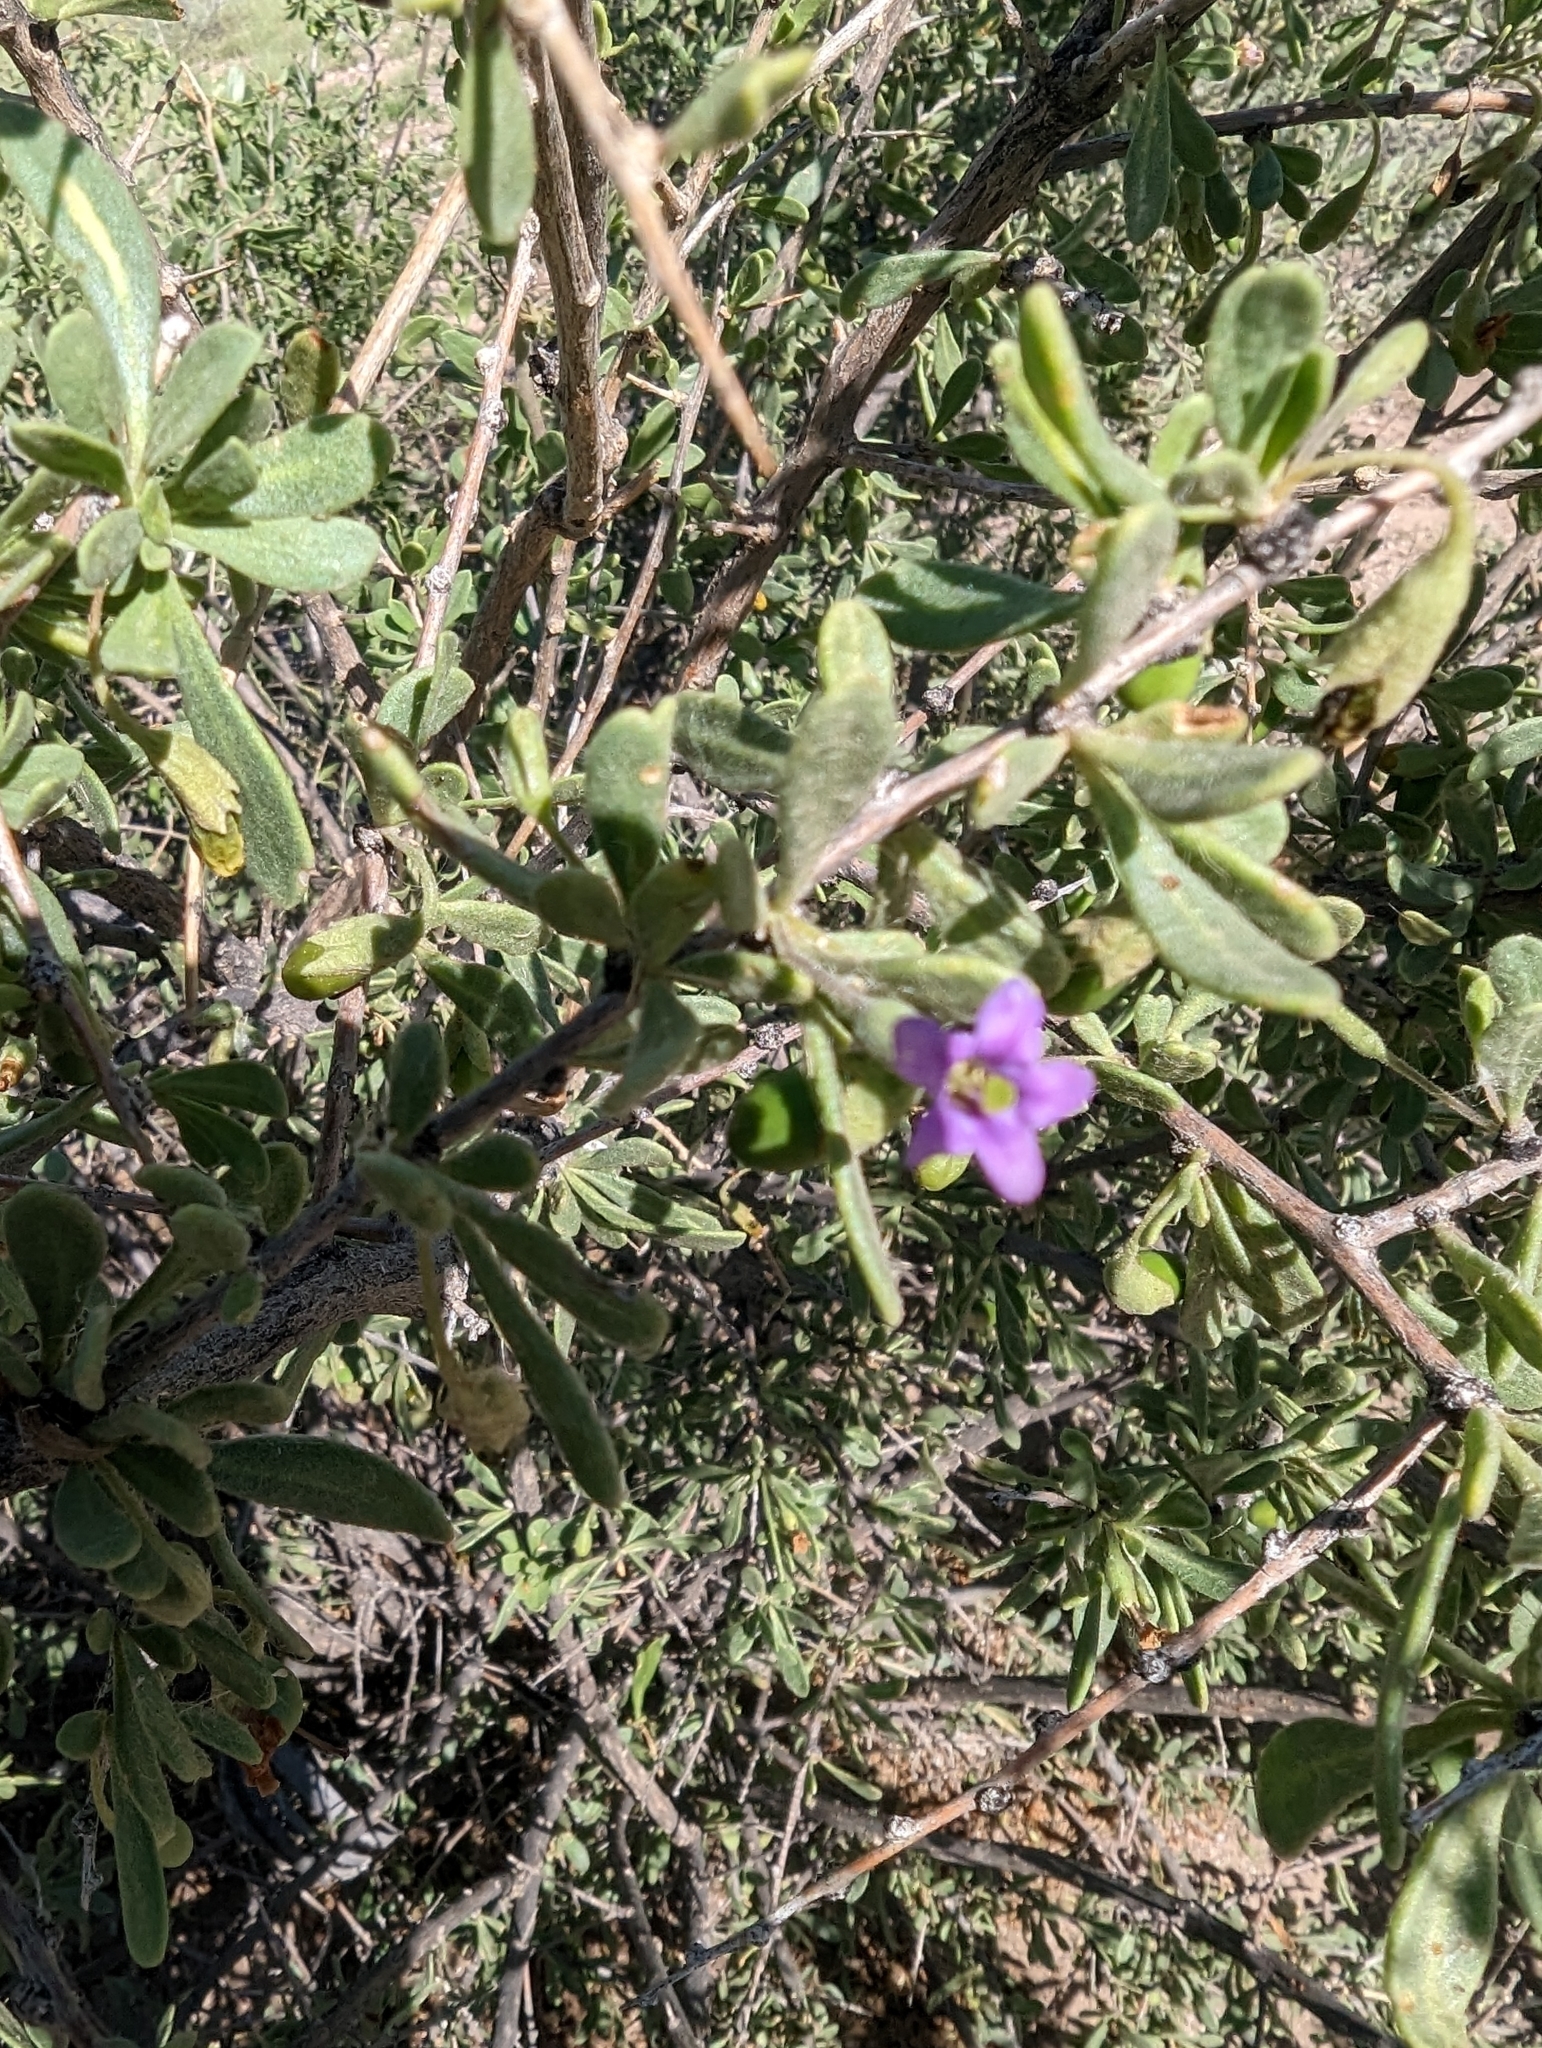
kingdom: Plantae
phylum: Tracheophyta
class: Magnoliopsida
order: Solanales
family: Solanaceae
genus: Lycium
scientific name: Lycium fremontii
